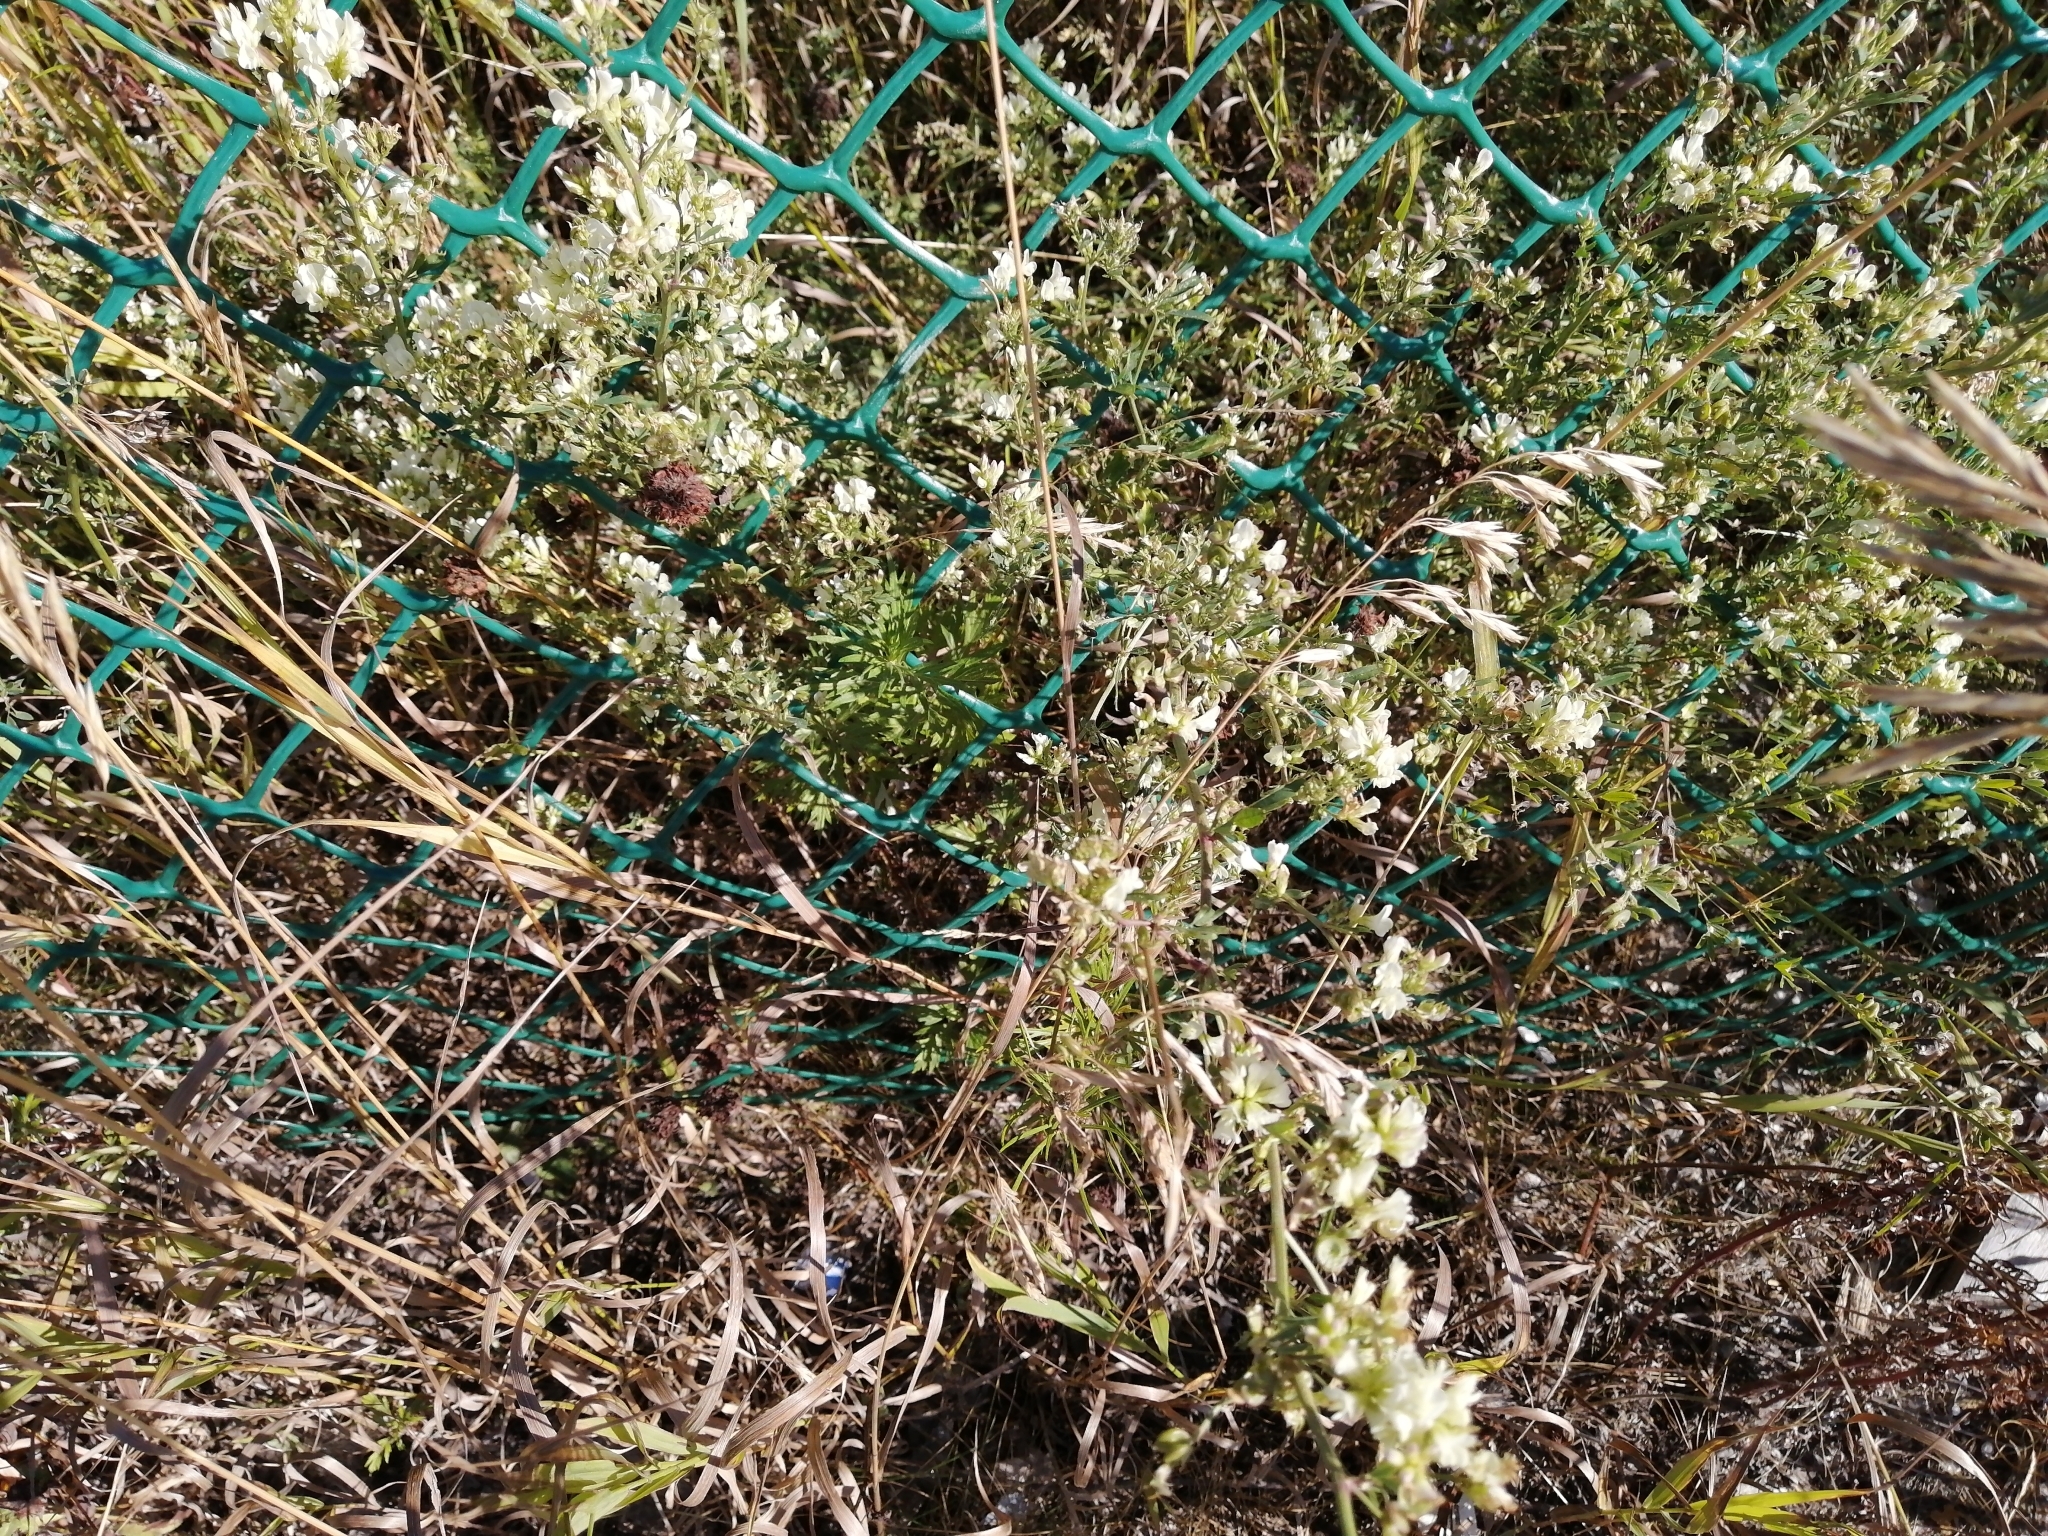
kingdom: Plantae
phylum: Tracheophyta
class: Magnoliopsida
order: Fabales
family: Fabaceae
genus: Medicago
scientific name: Medicago varia
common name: Sand lucerne
